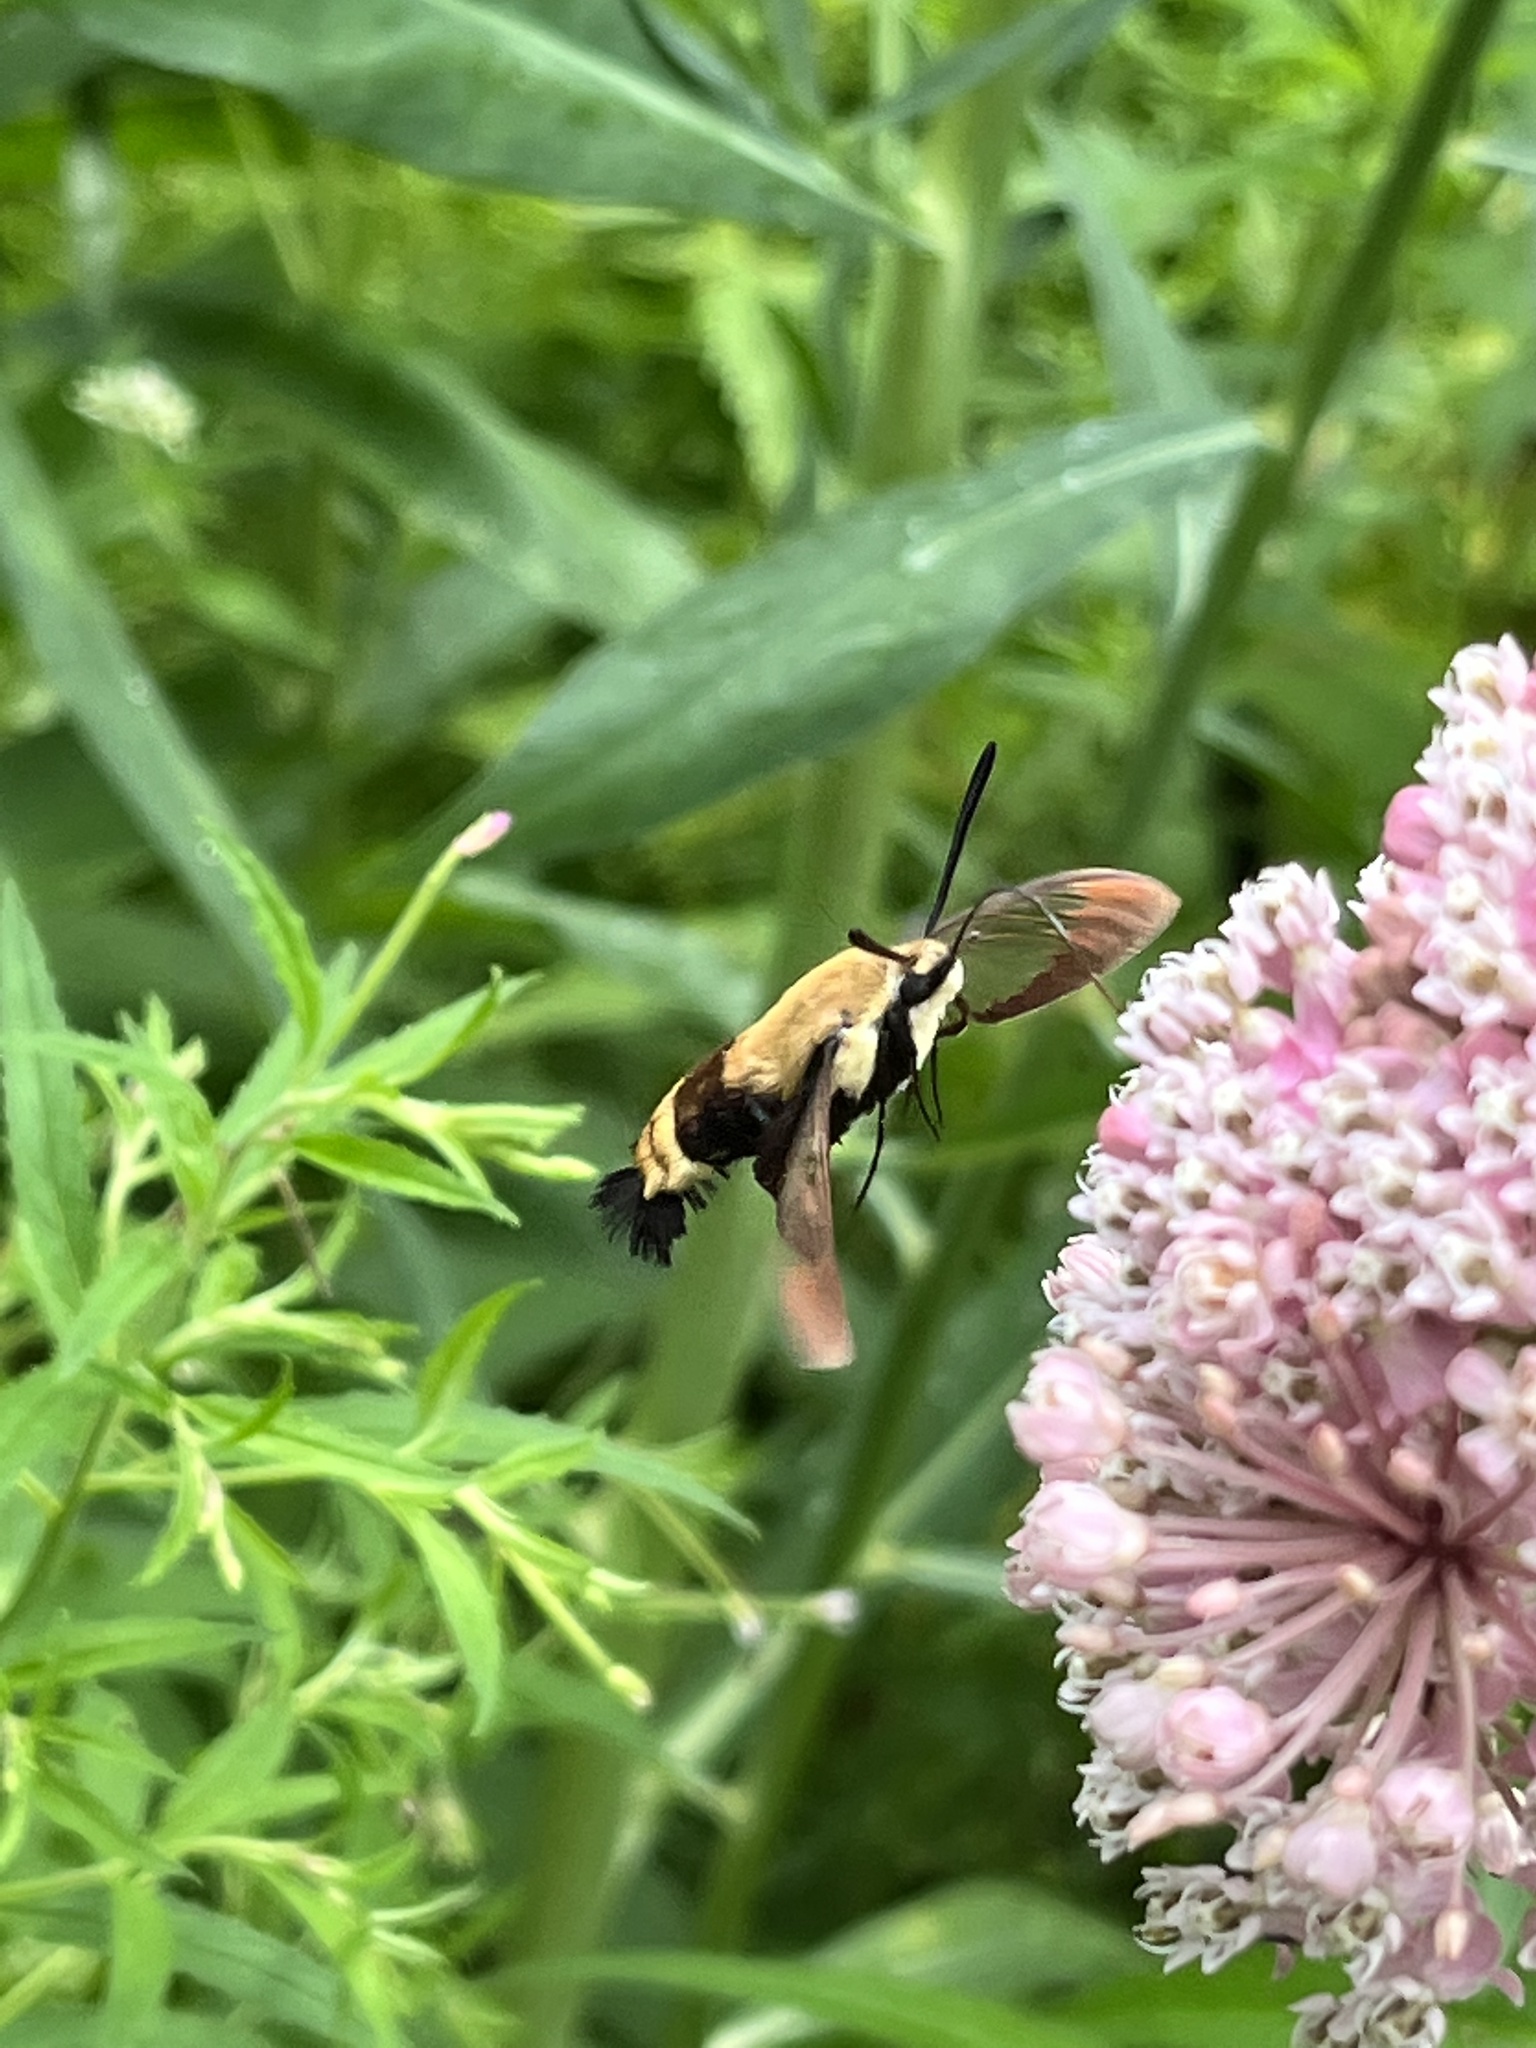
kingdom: Animalia
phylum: Arthropoda
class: Insecta
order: Lepidoptera
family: Sphingidae
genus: Hemaris
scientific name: Hemaris diffinis
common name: Bumblebee moth
